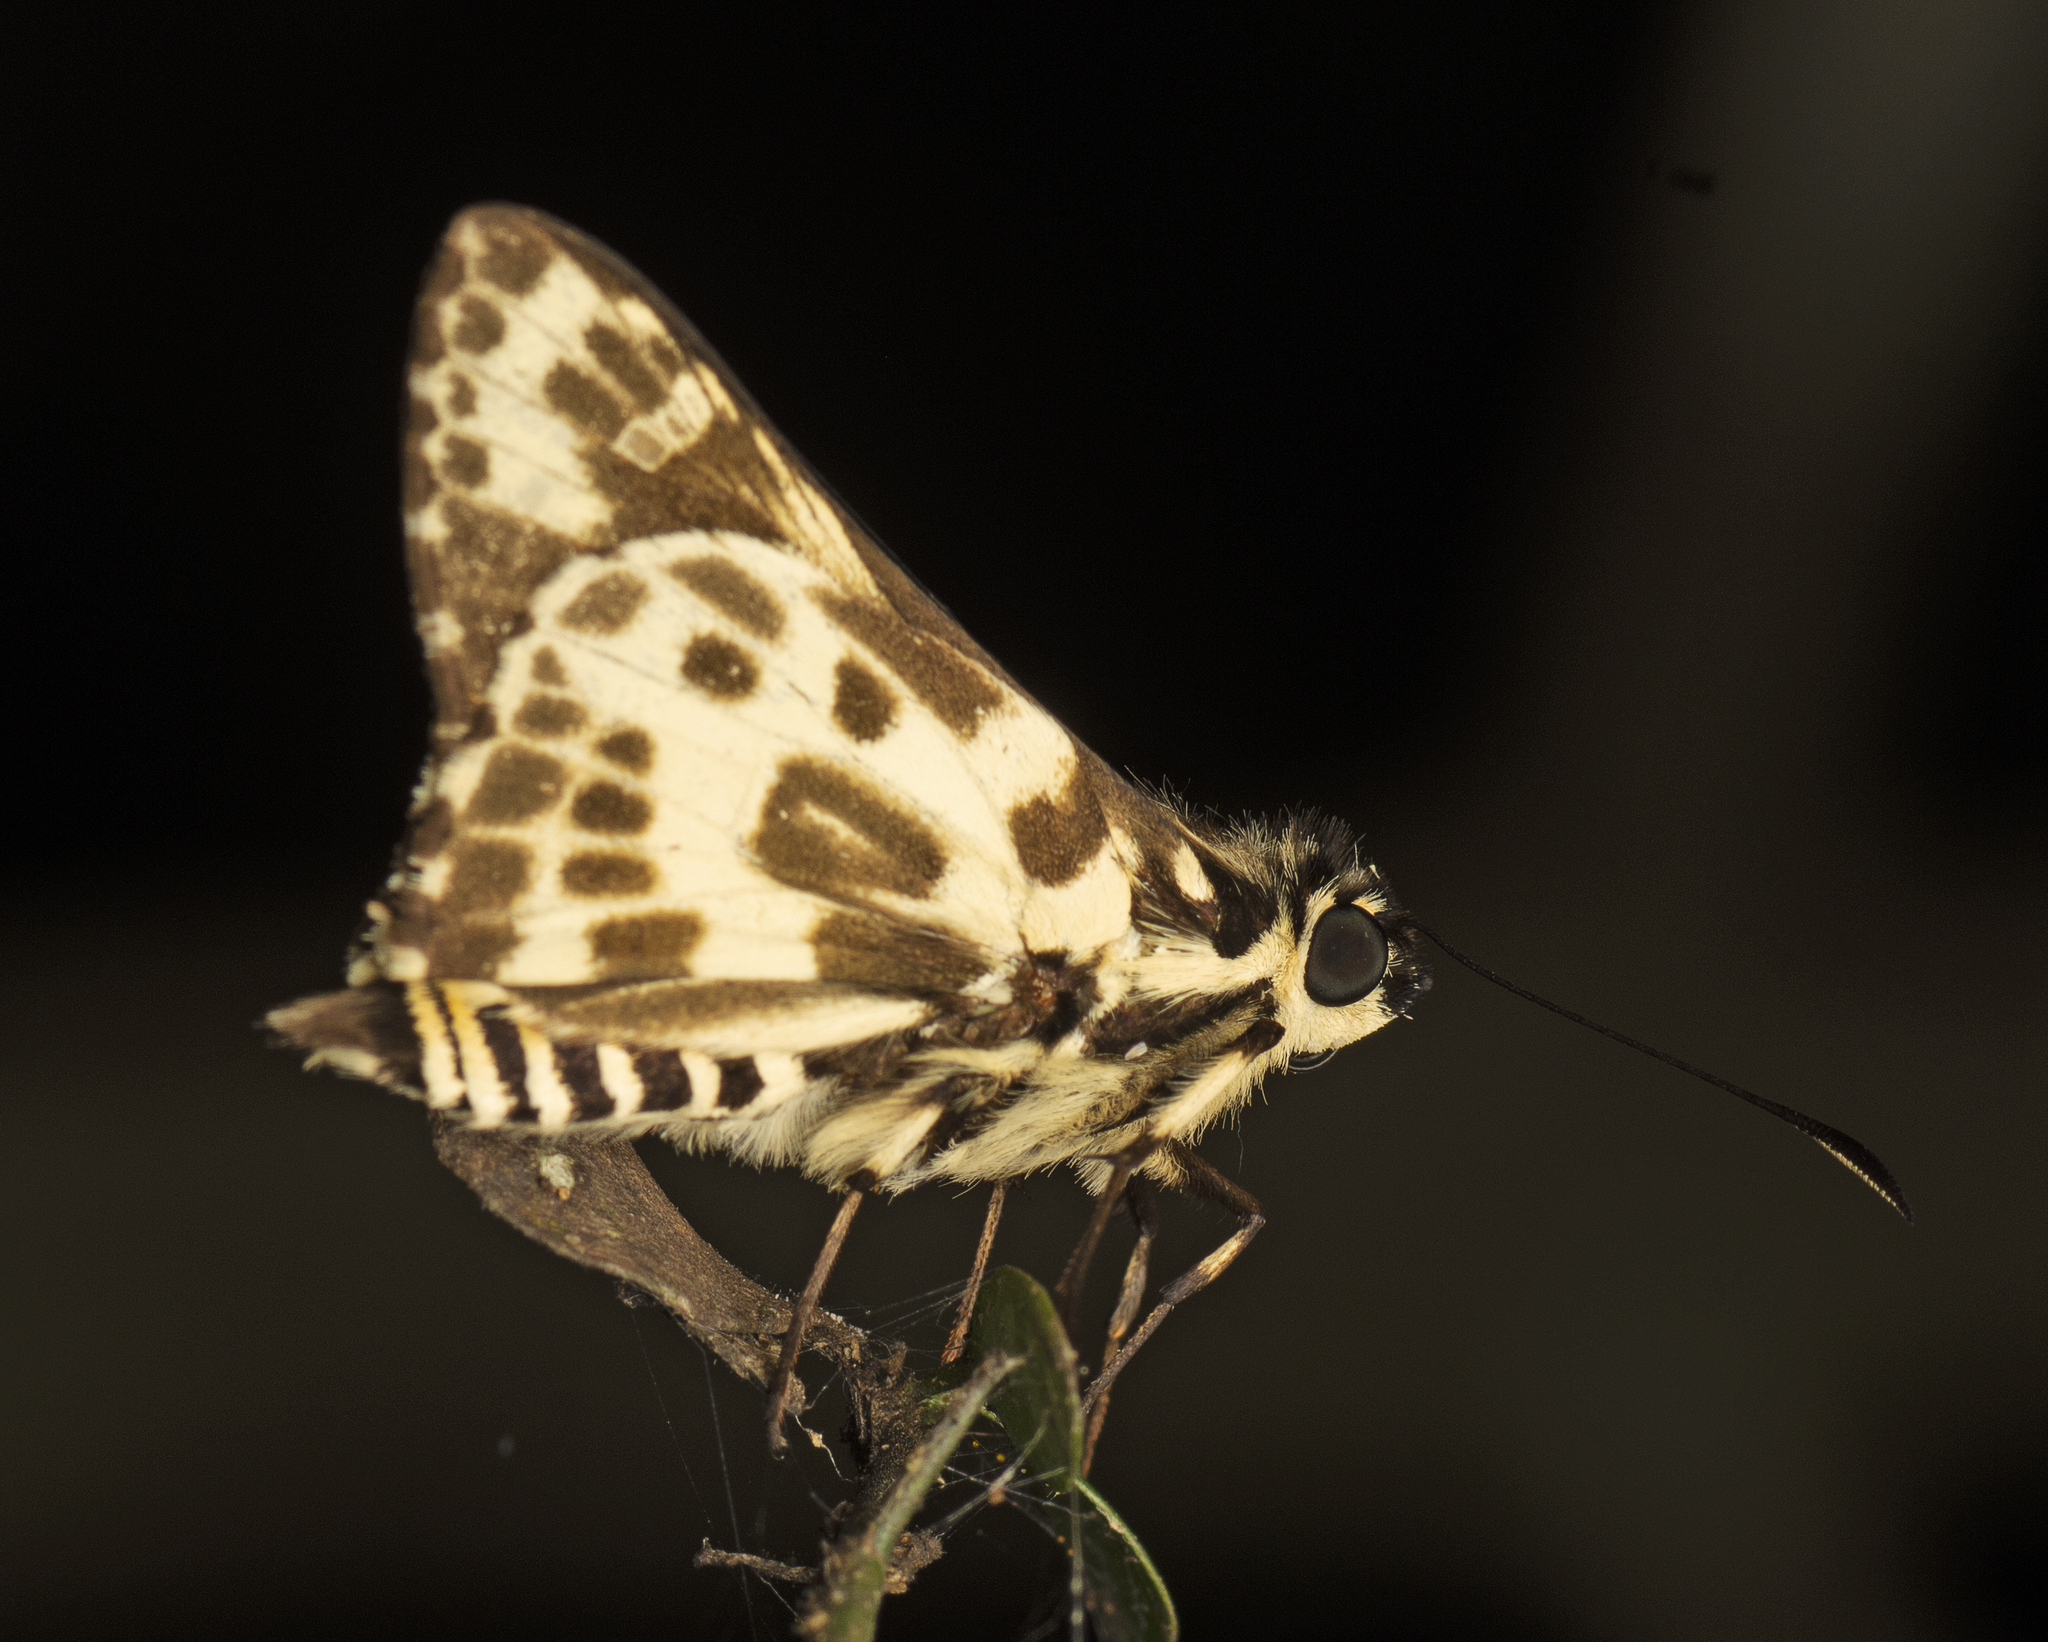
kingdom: Animalia
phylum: Arthropoda
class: Insecta
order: Lepidoptera
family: Hesperiidae
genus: Hesperilla
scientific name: Hesperilla ornata
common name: Spotted sedge-skipper
